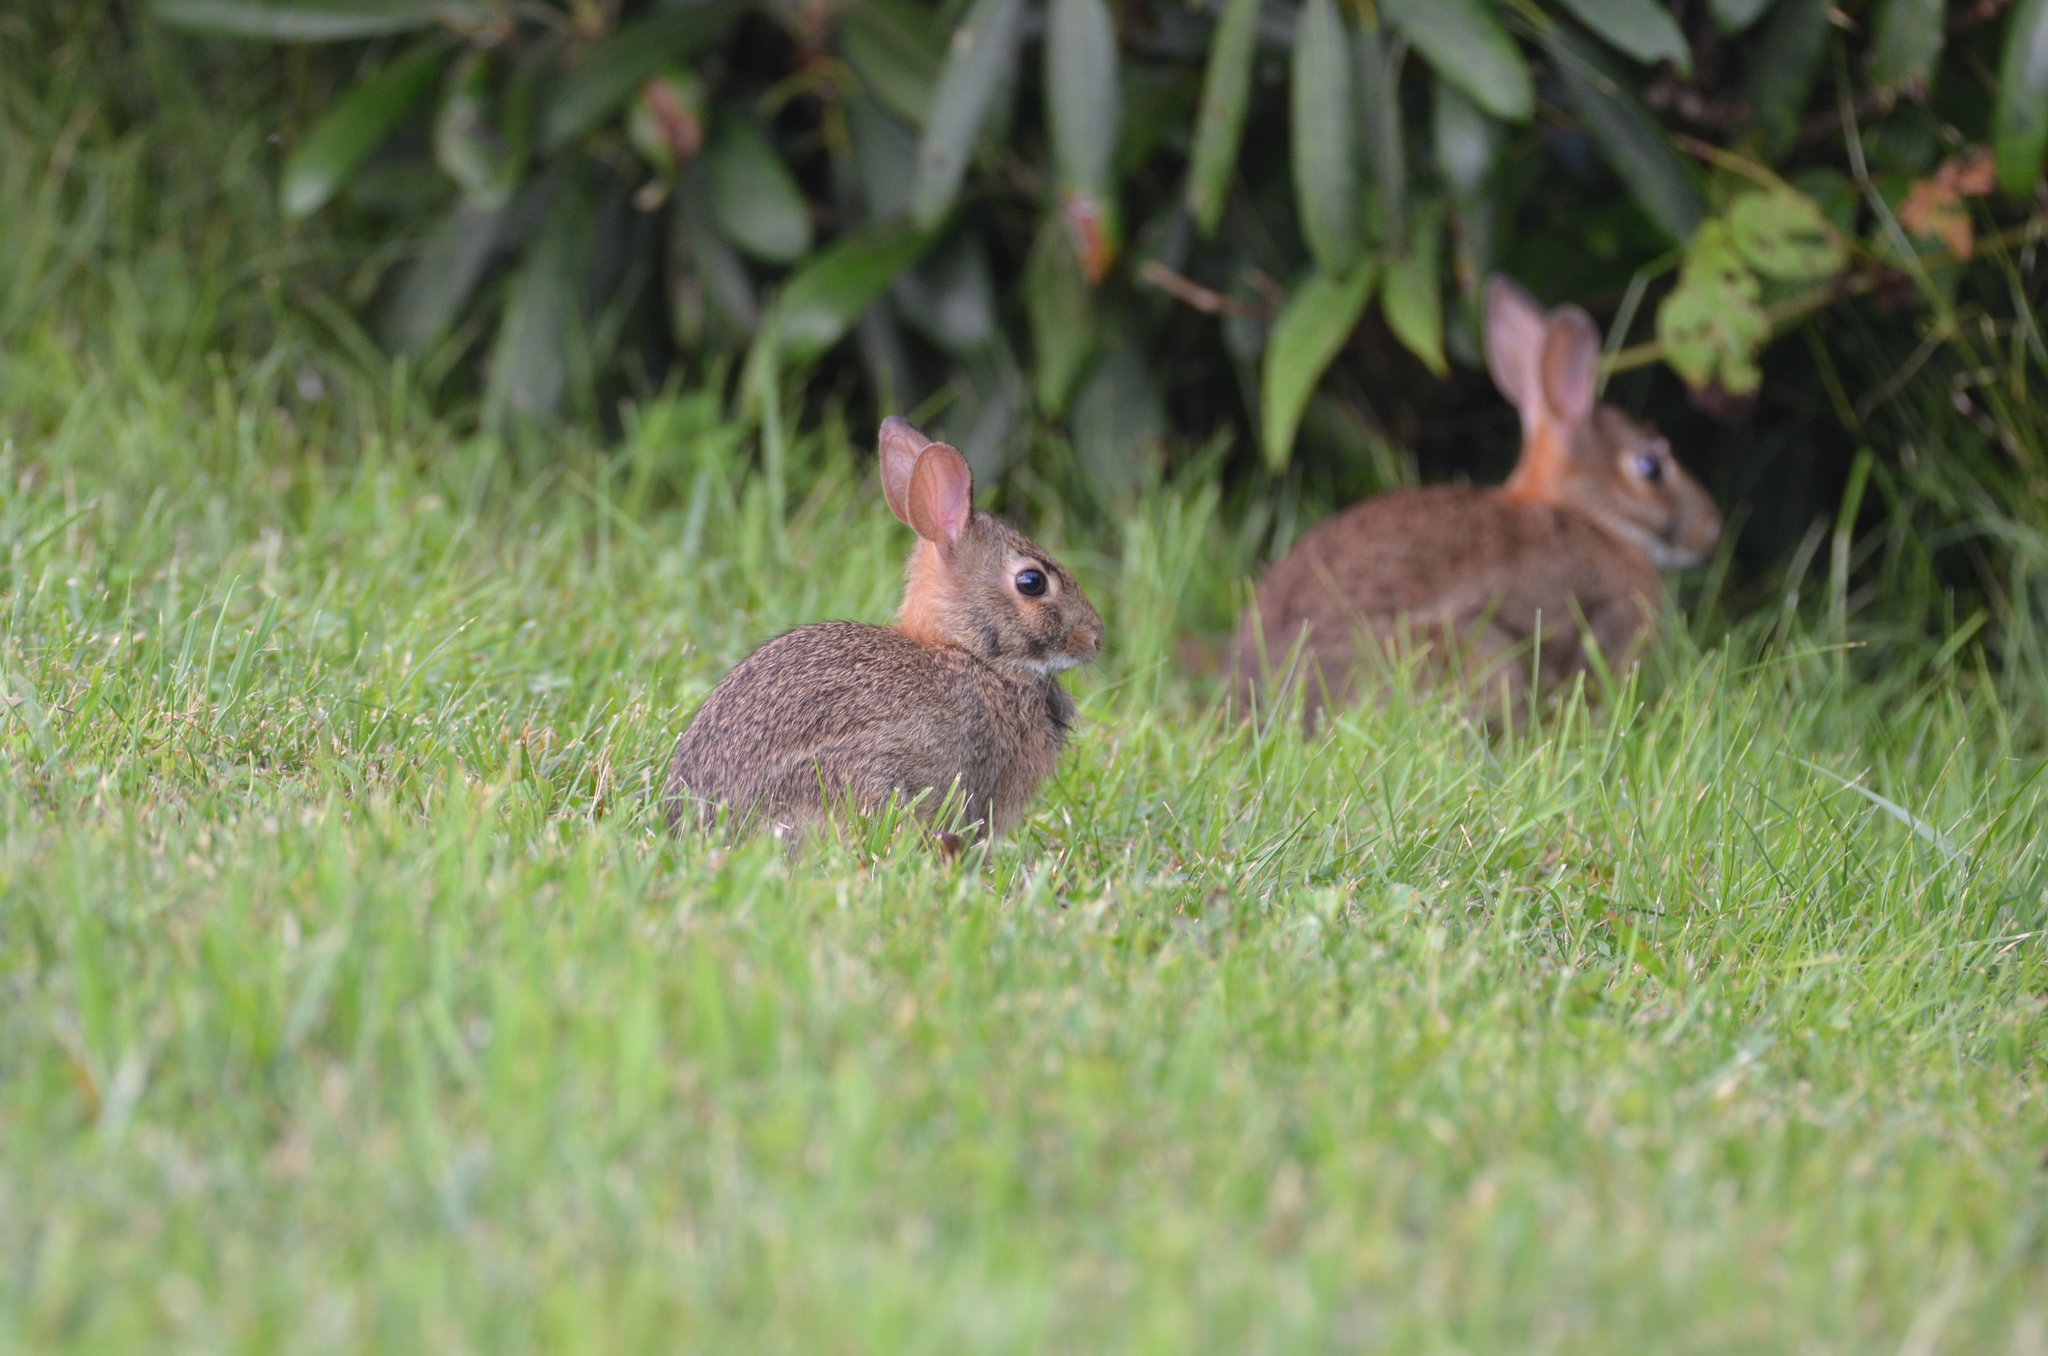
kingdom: Animalia
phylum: Chordata
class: Mammalia
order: Lagomorpha
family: Leporidae
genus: Sylvilagus
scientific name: Sylvilagus floridanus
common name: Eastern cottontail
